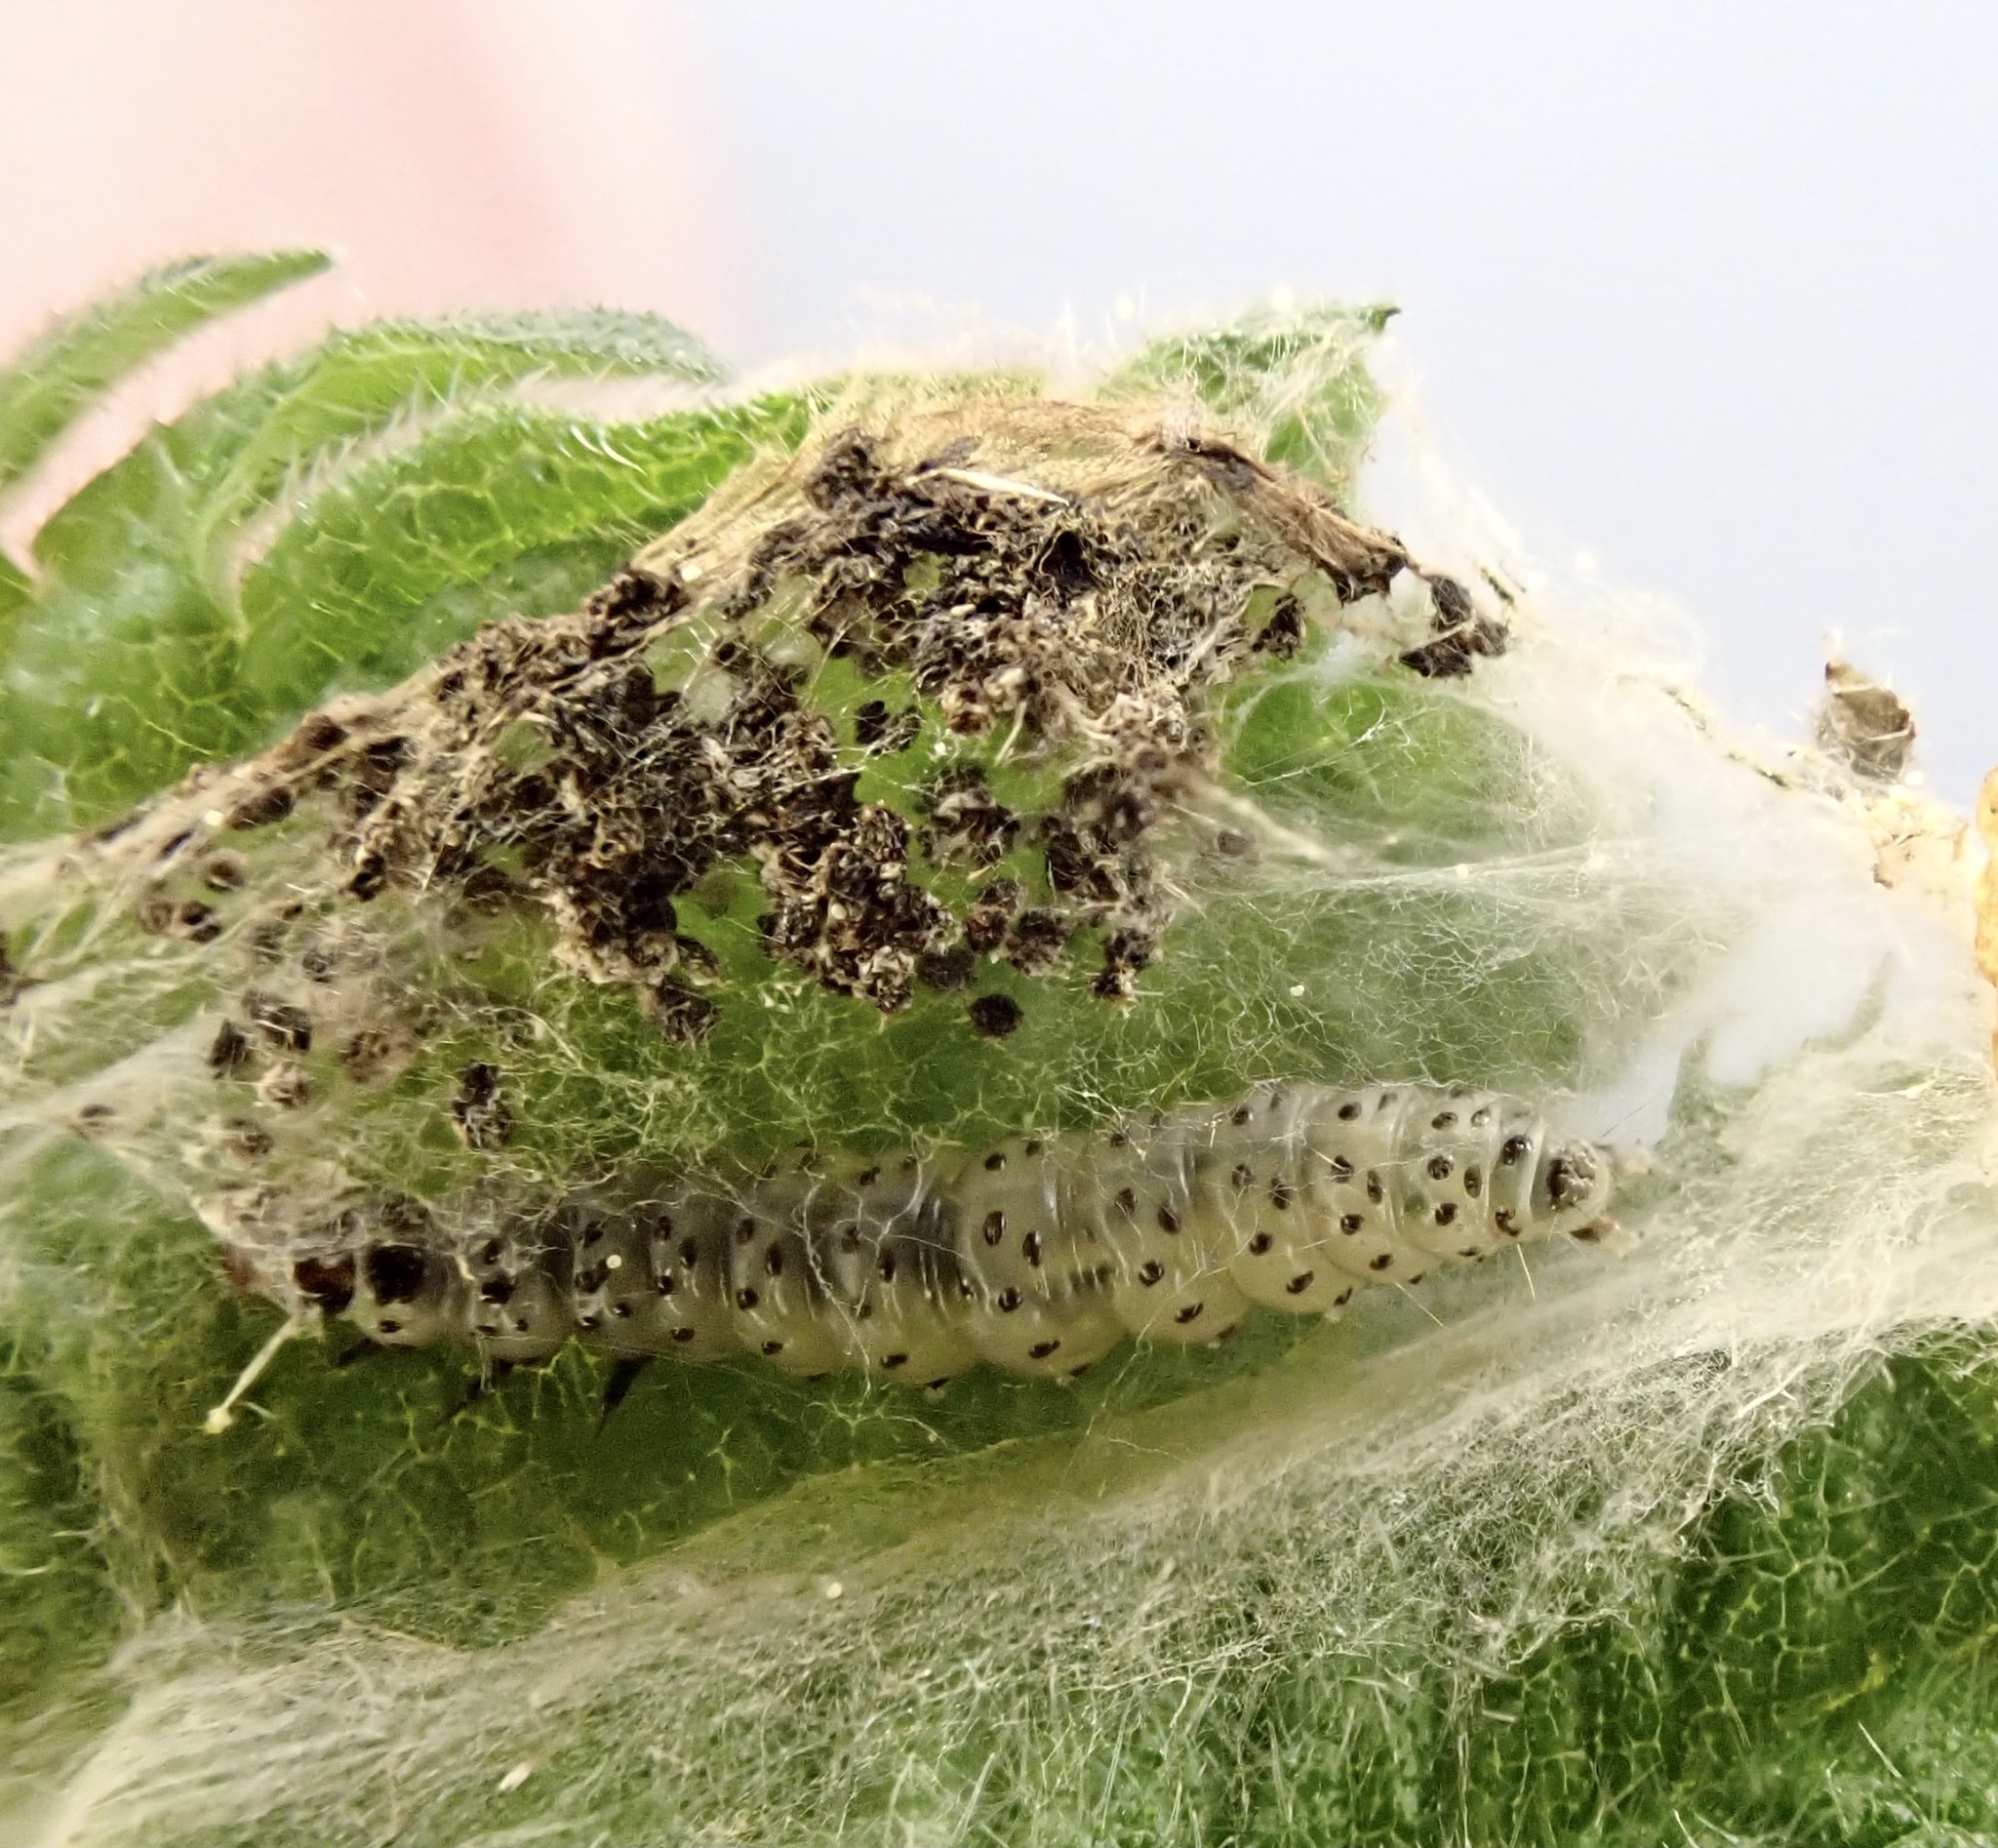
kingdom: Animalia
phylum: Arthropoda
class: Insecta
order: Lepidoptera
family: Choreutidae
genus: Anthophila
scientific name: Anthophila fabriciana
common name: Nettle-tap
